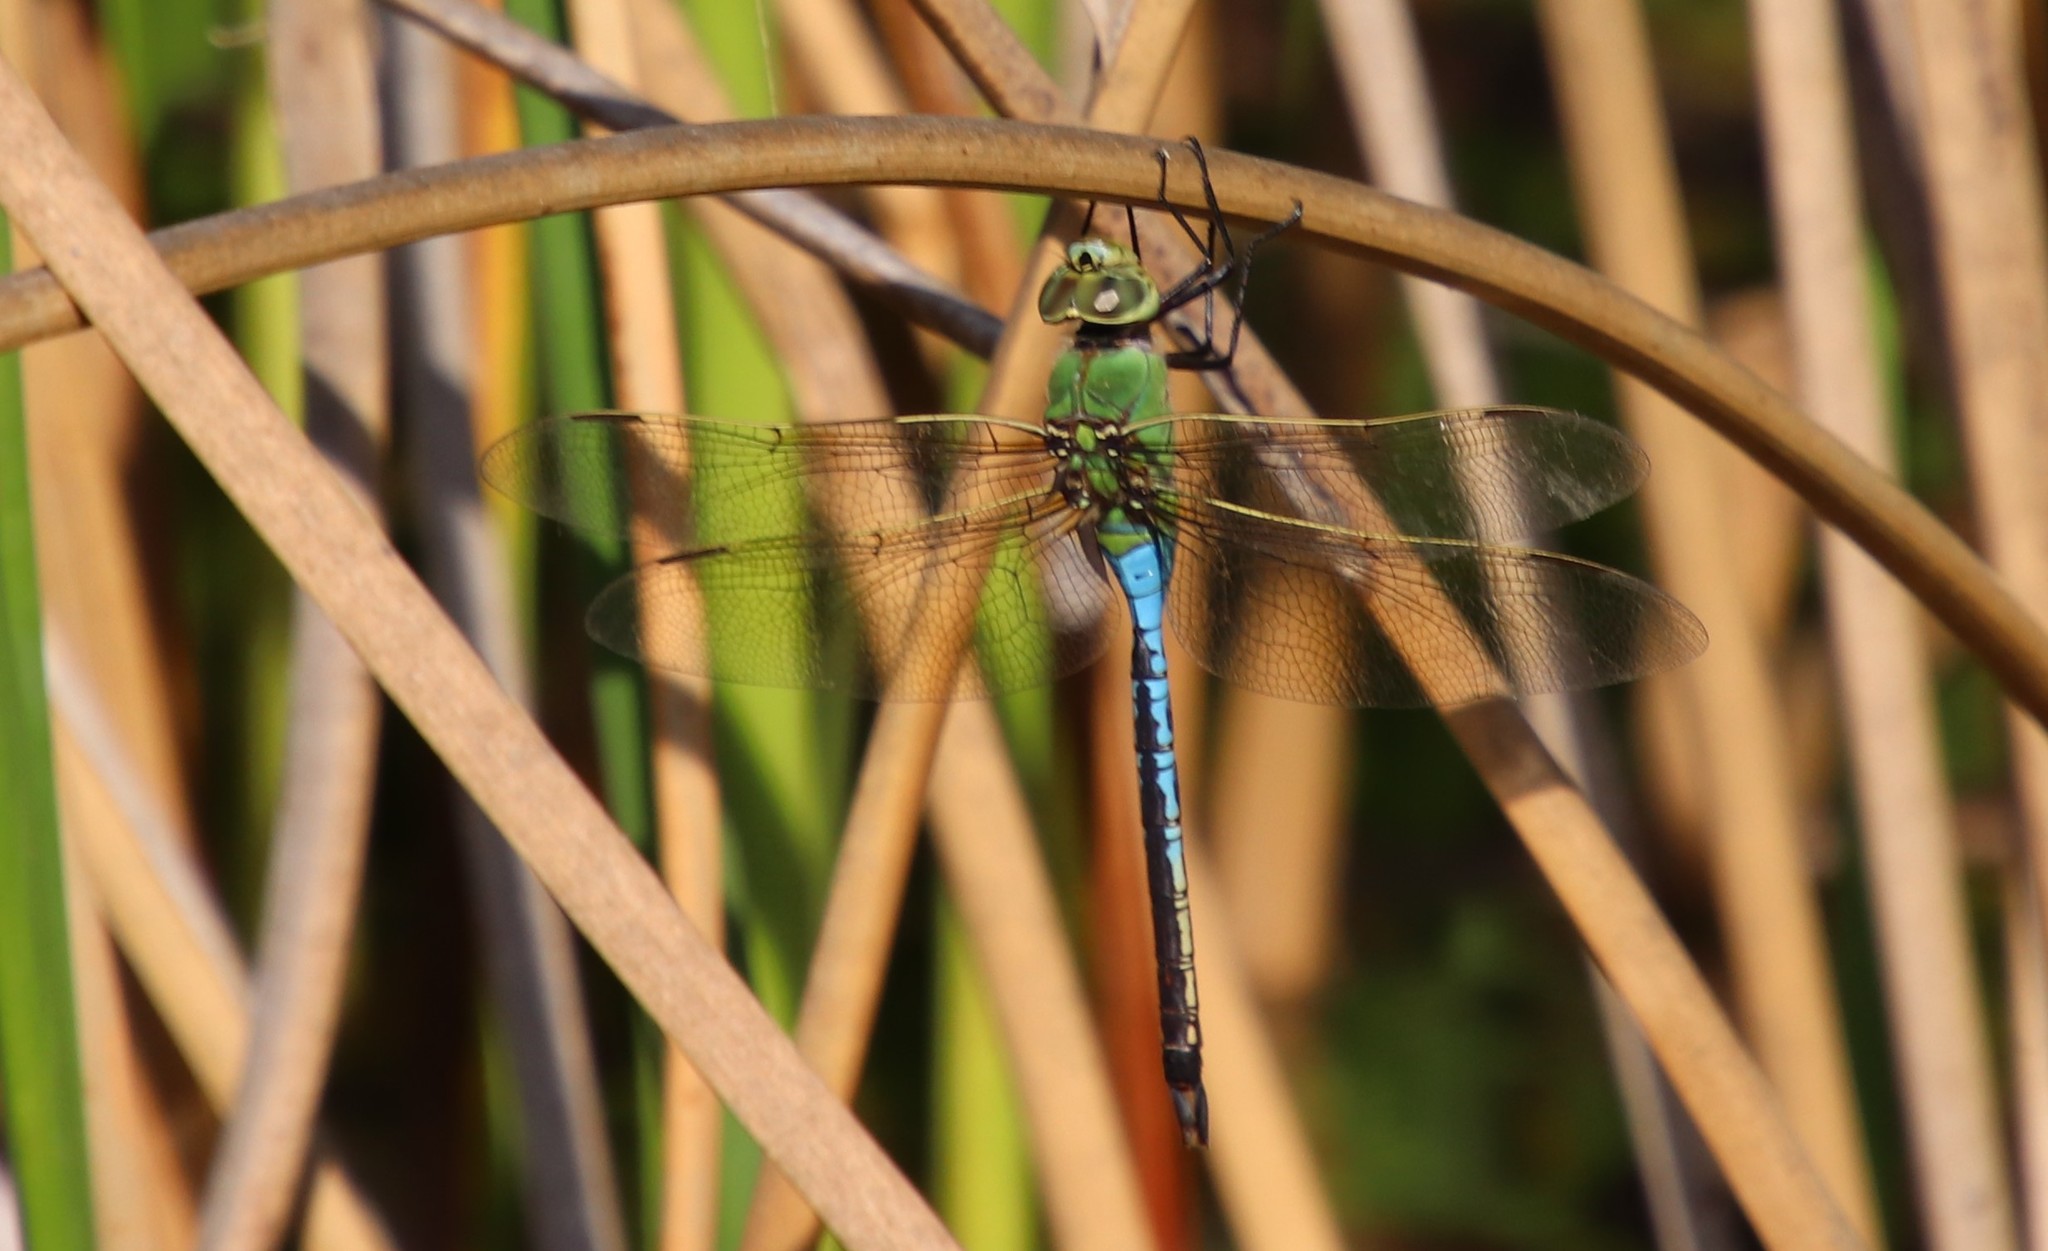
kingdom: Animalia
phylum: Arthropoda
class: Insecta
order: Odonata
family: Aeshnidae
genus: Anax
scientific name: Anax junius
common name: Common green darner
